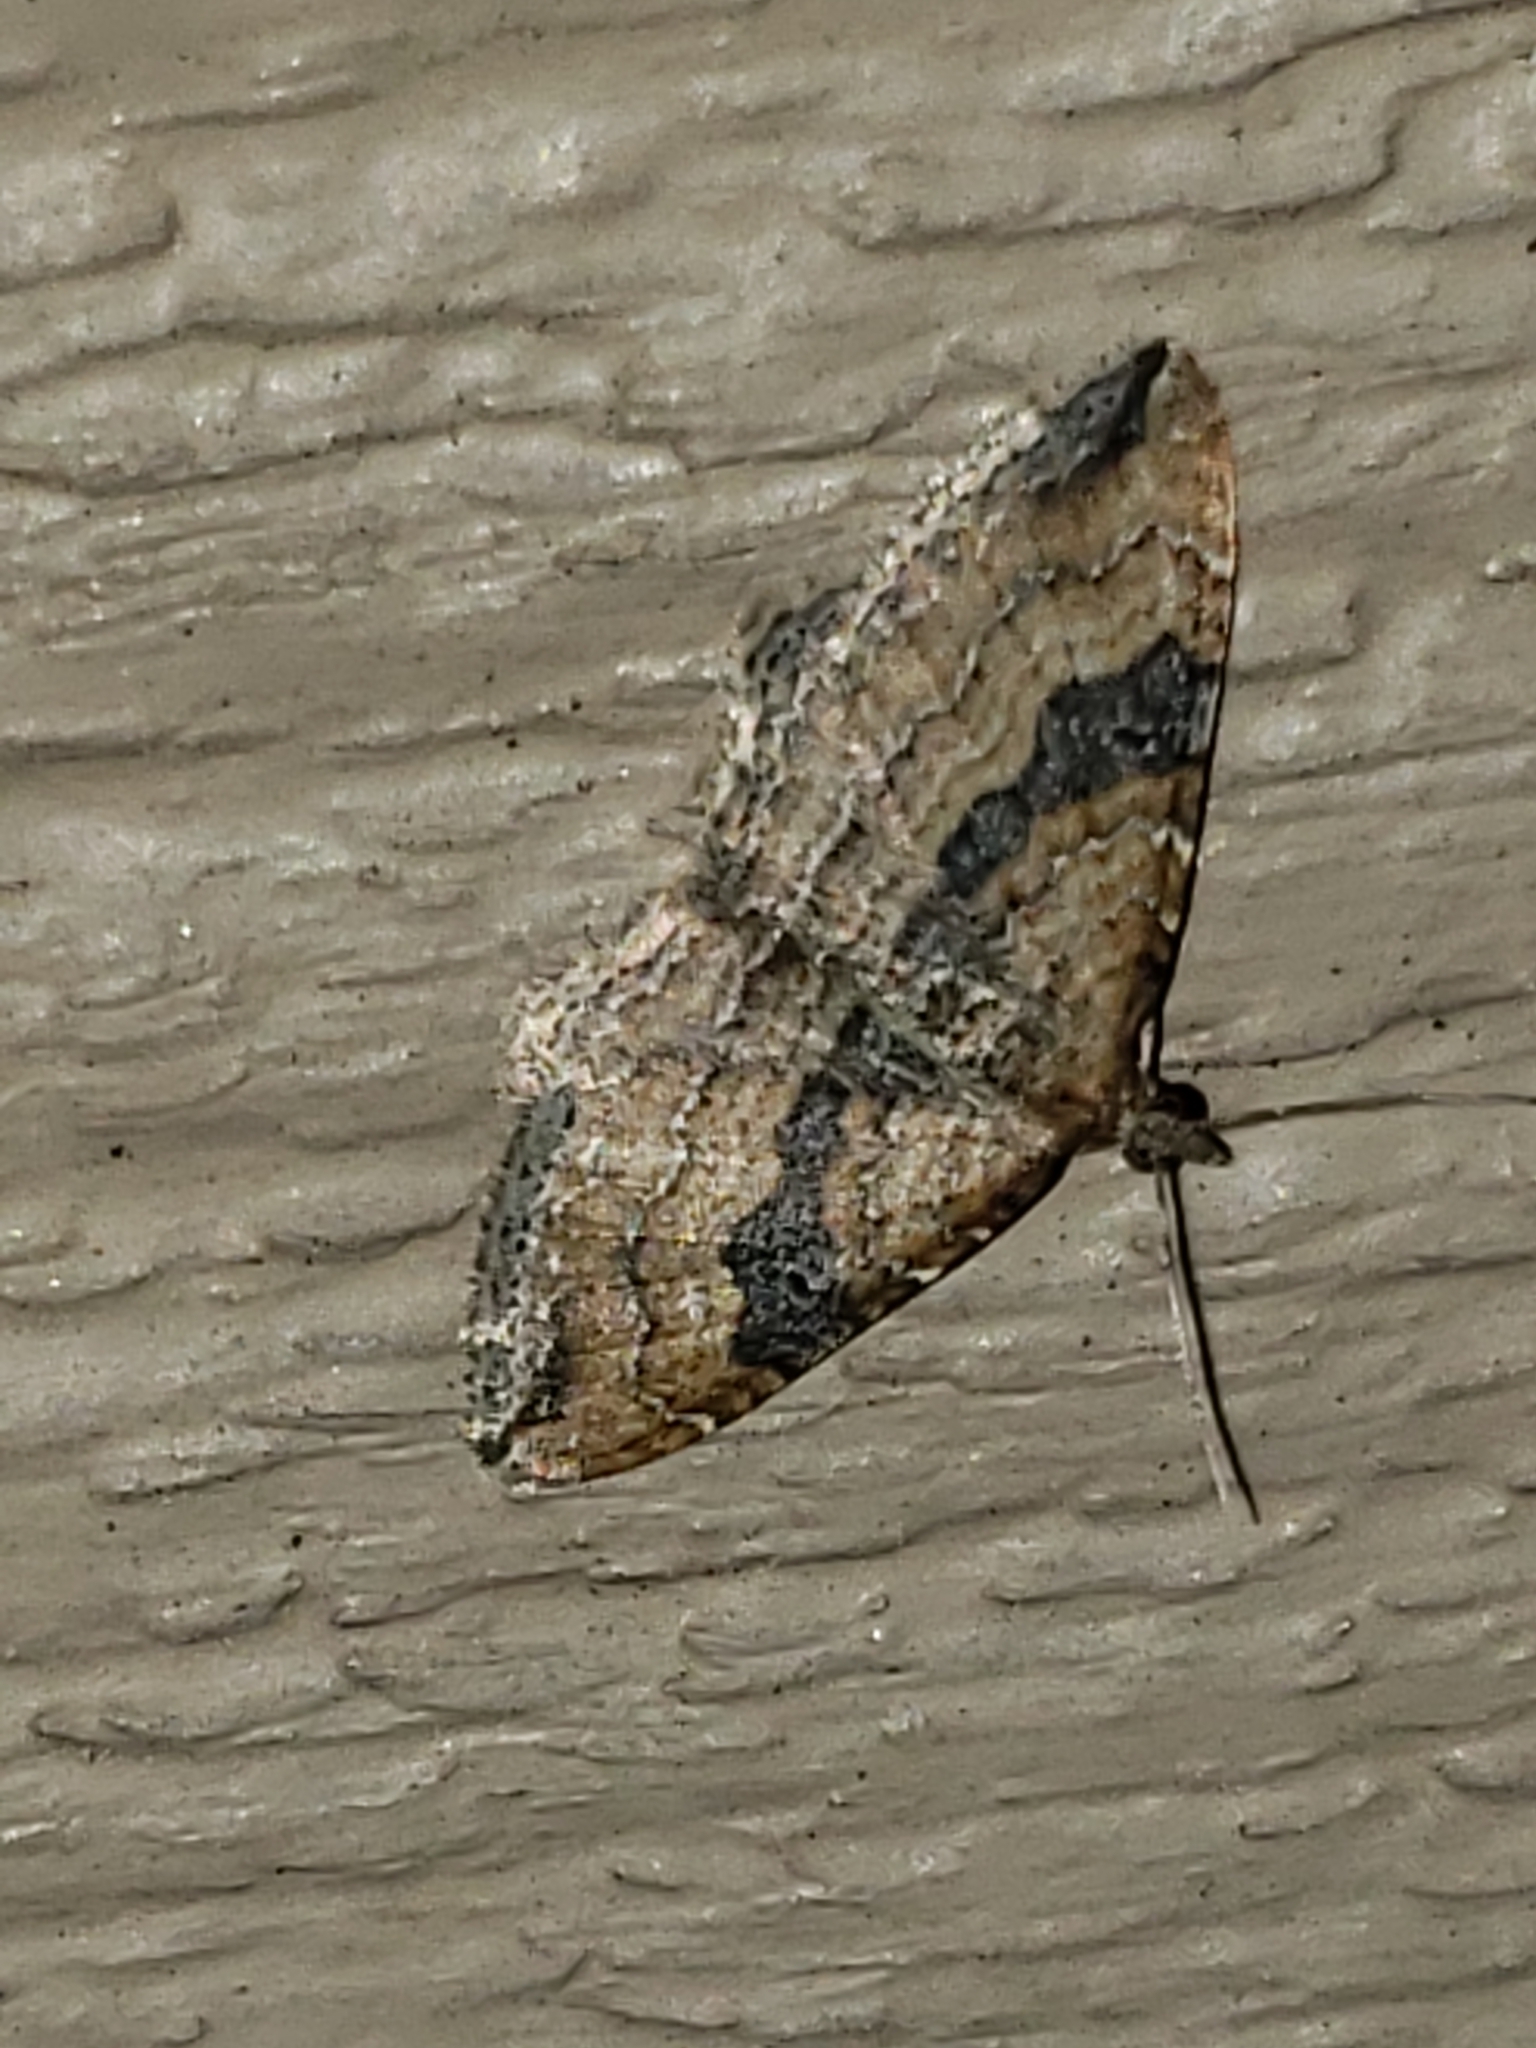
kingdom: Animalia
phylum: Arthropoda
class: Insecta
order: Lepidoptera
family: Geometridae
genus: Orthonama
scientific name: Orthonama obstipata
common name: The gem
